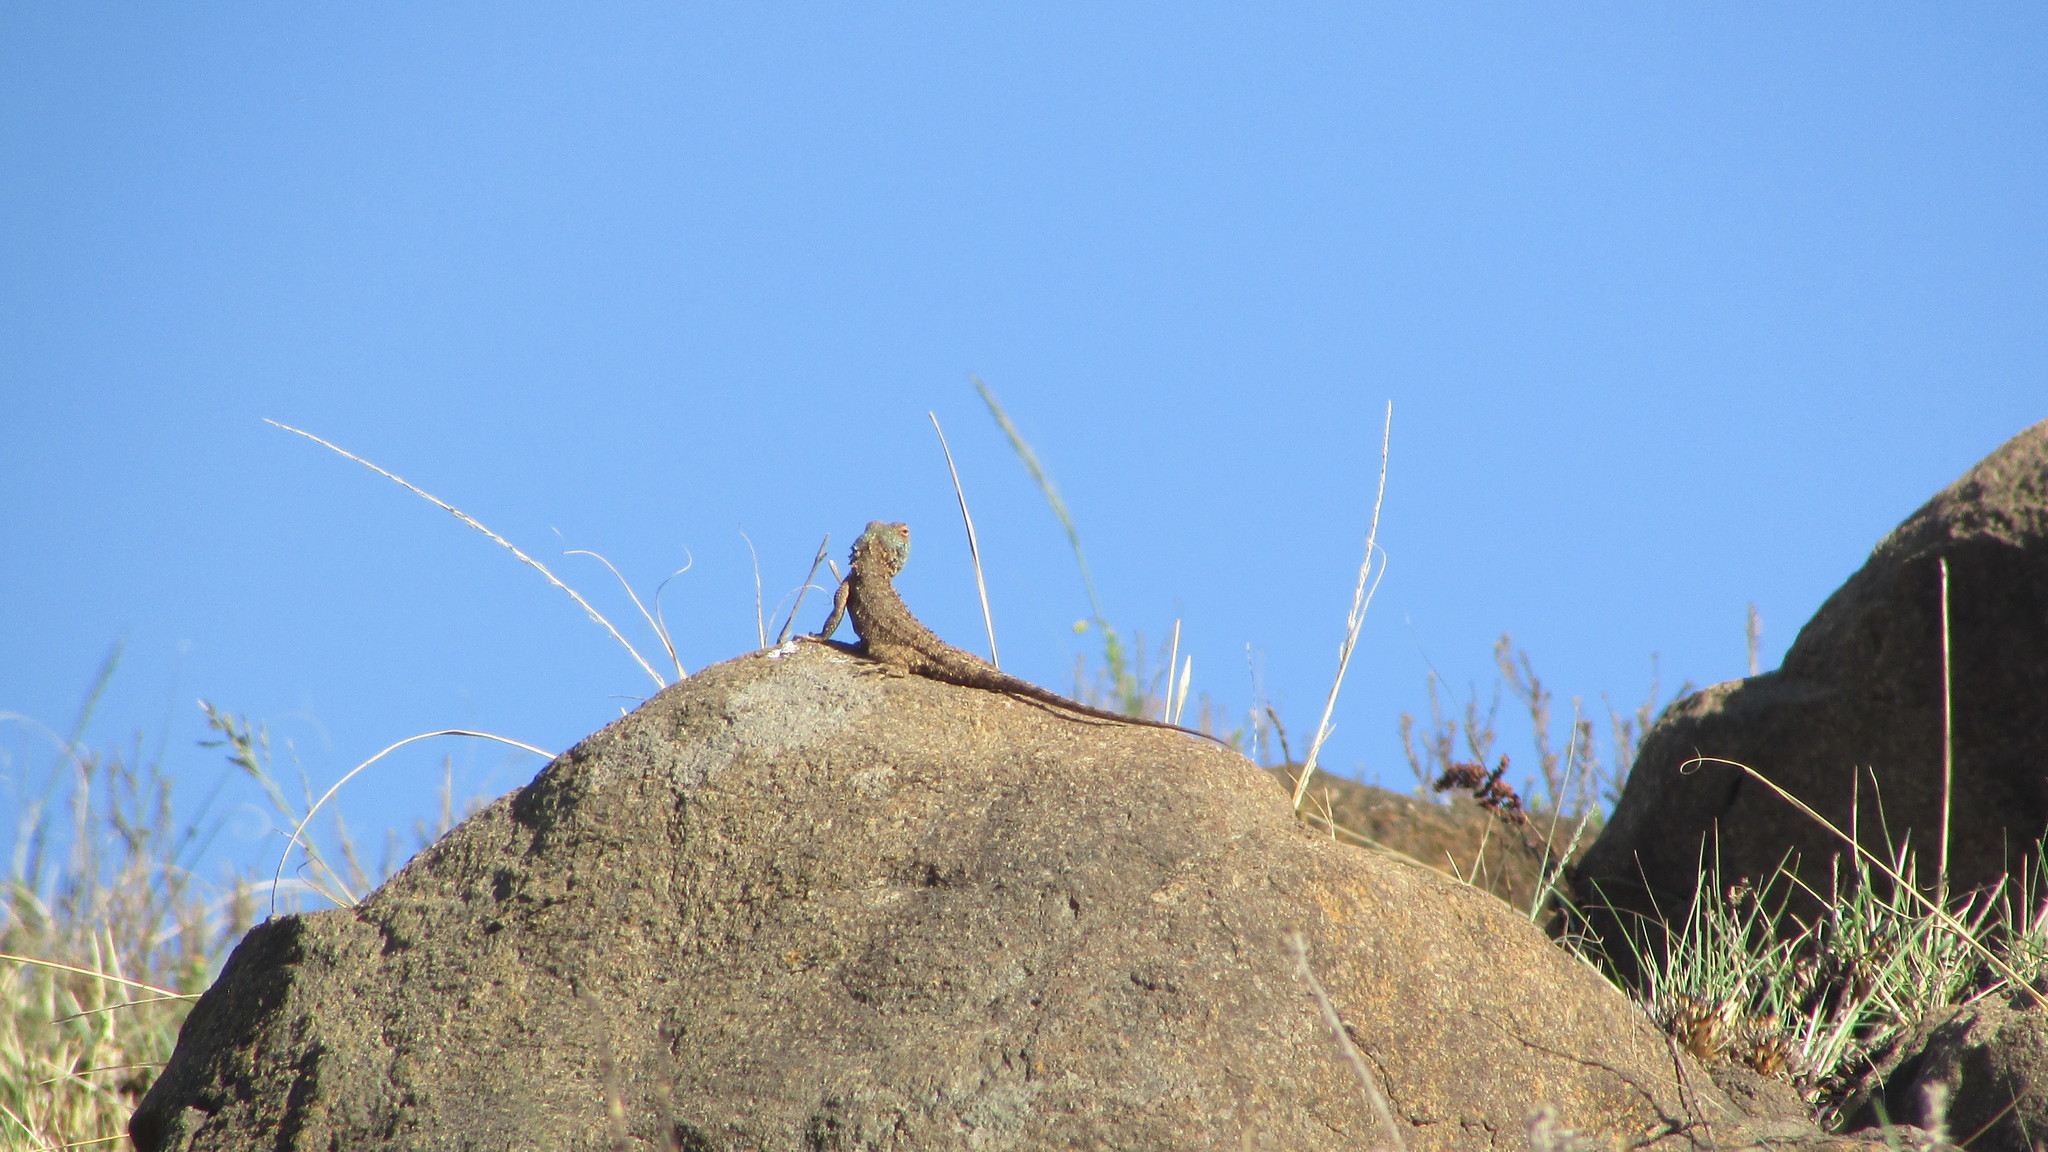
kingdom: Animalia
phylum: Chordata
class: Squamata
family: Agamidae
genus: Agama
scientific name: Agama aculeata
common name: Common ground agama
